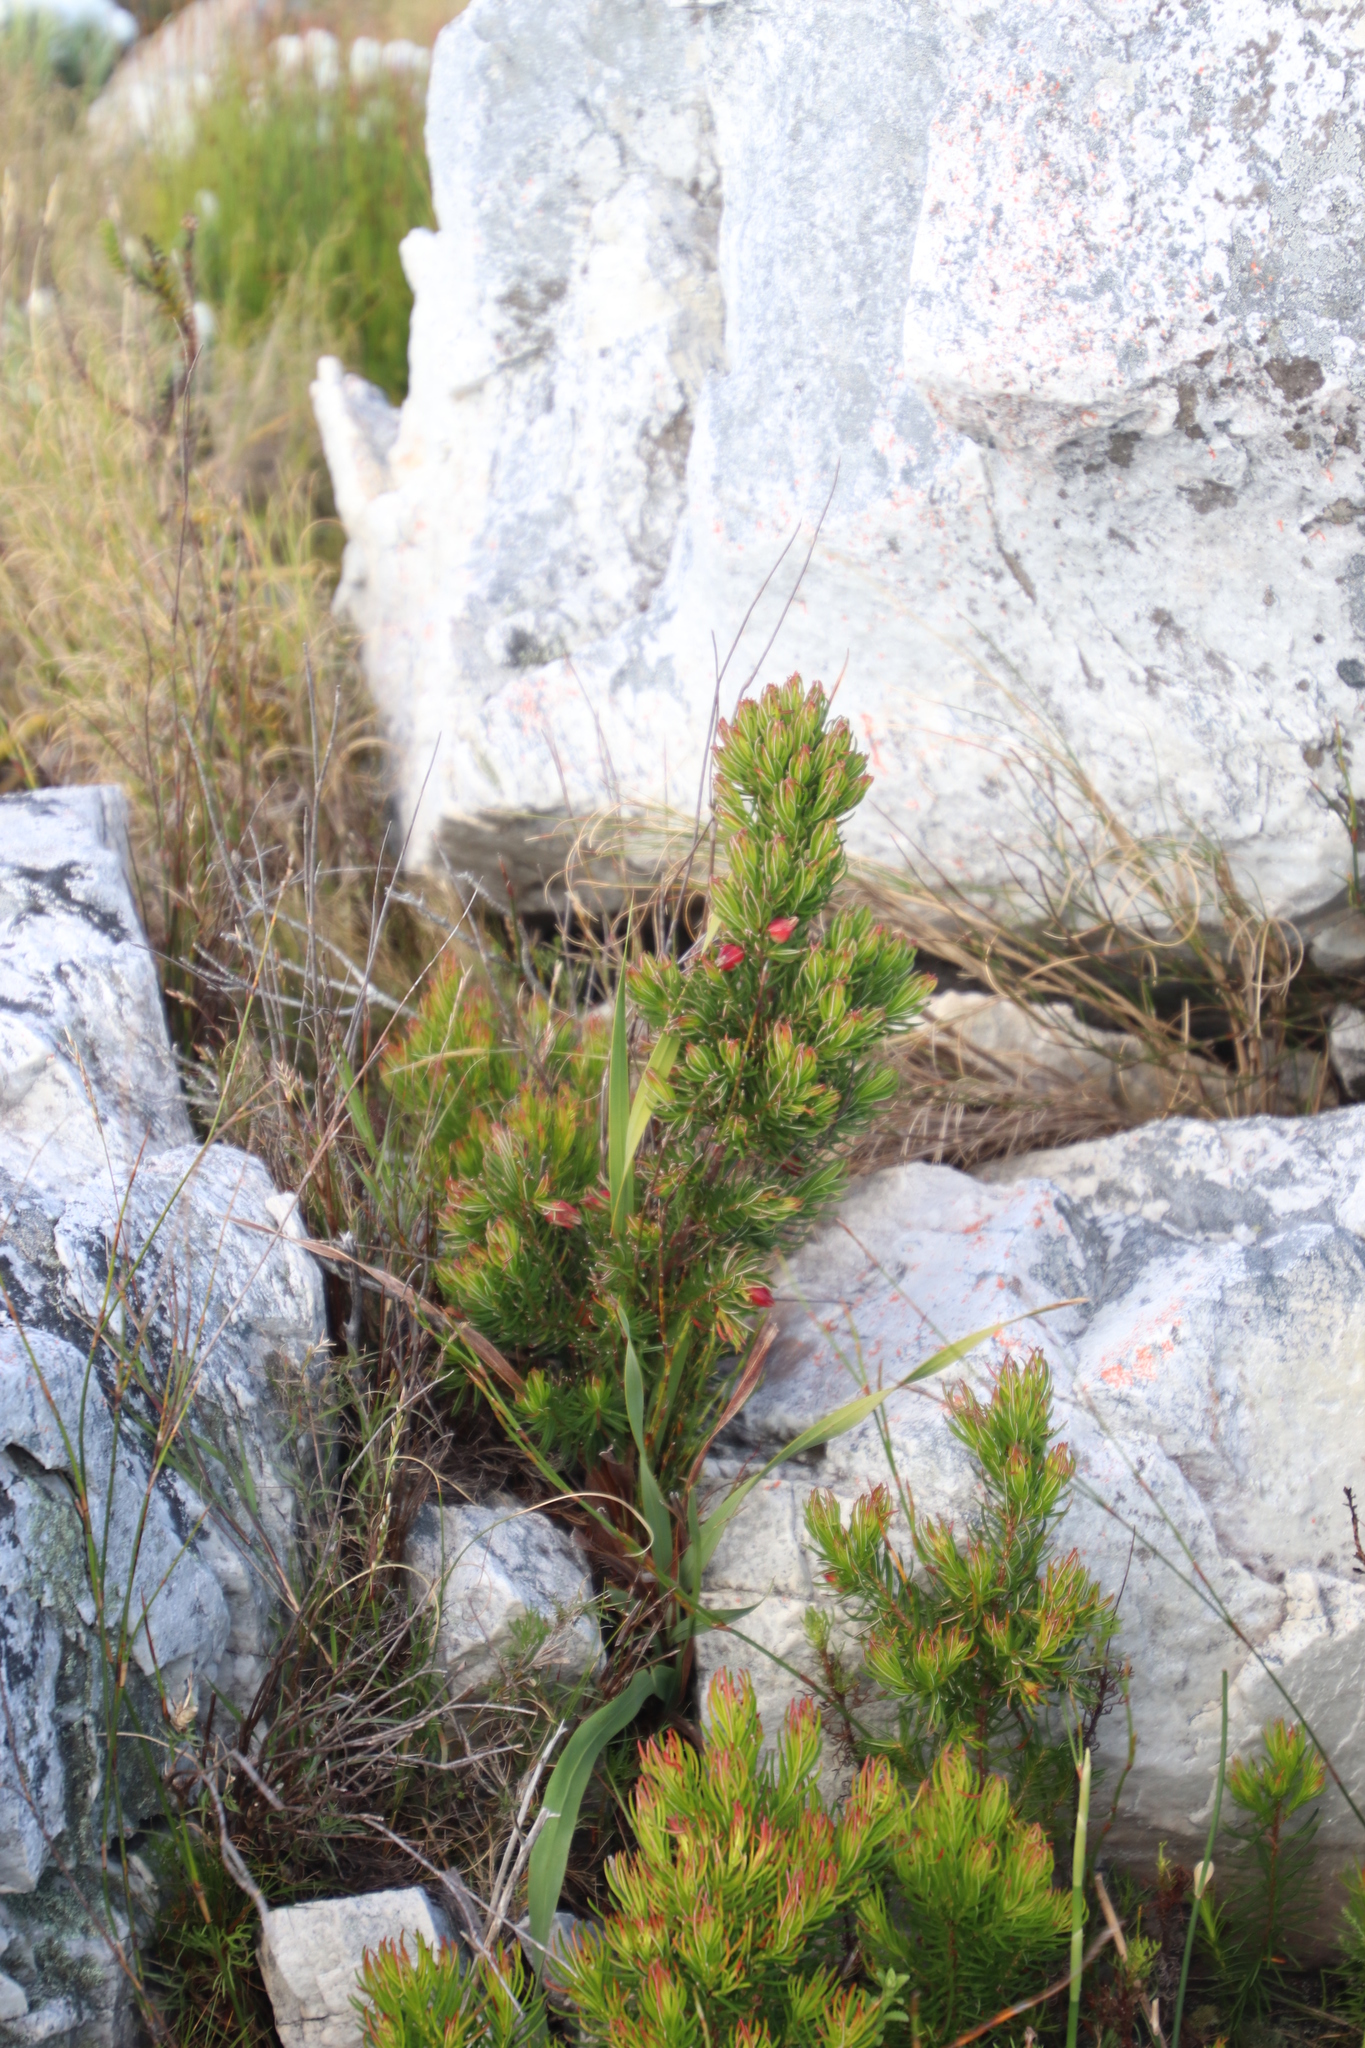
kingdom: Plantae
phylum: Tracheophyta
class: Magnoliopsida
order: Ericales
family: Ericaceae
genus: Erica
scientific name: Erica lanuginosa
